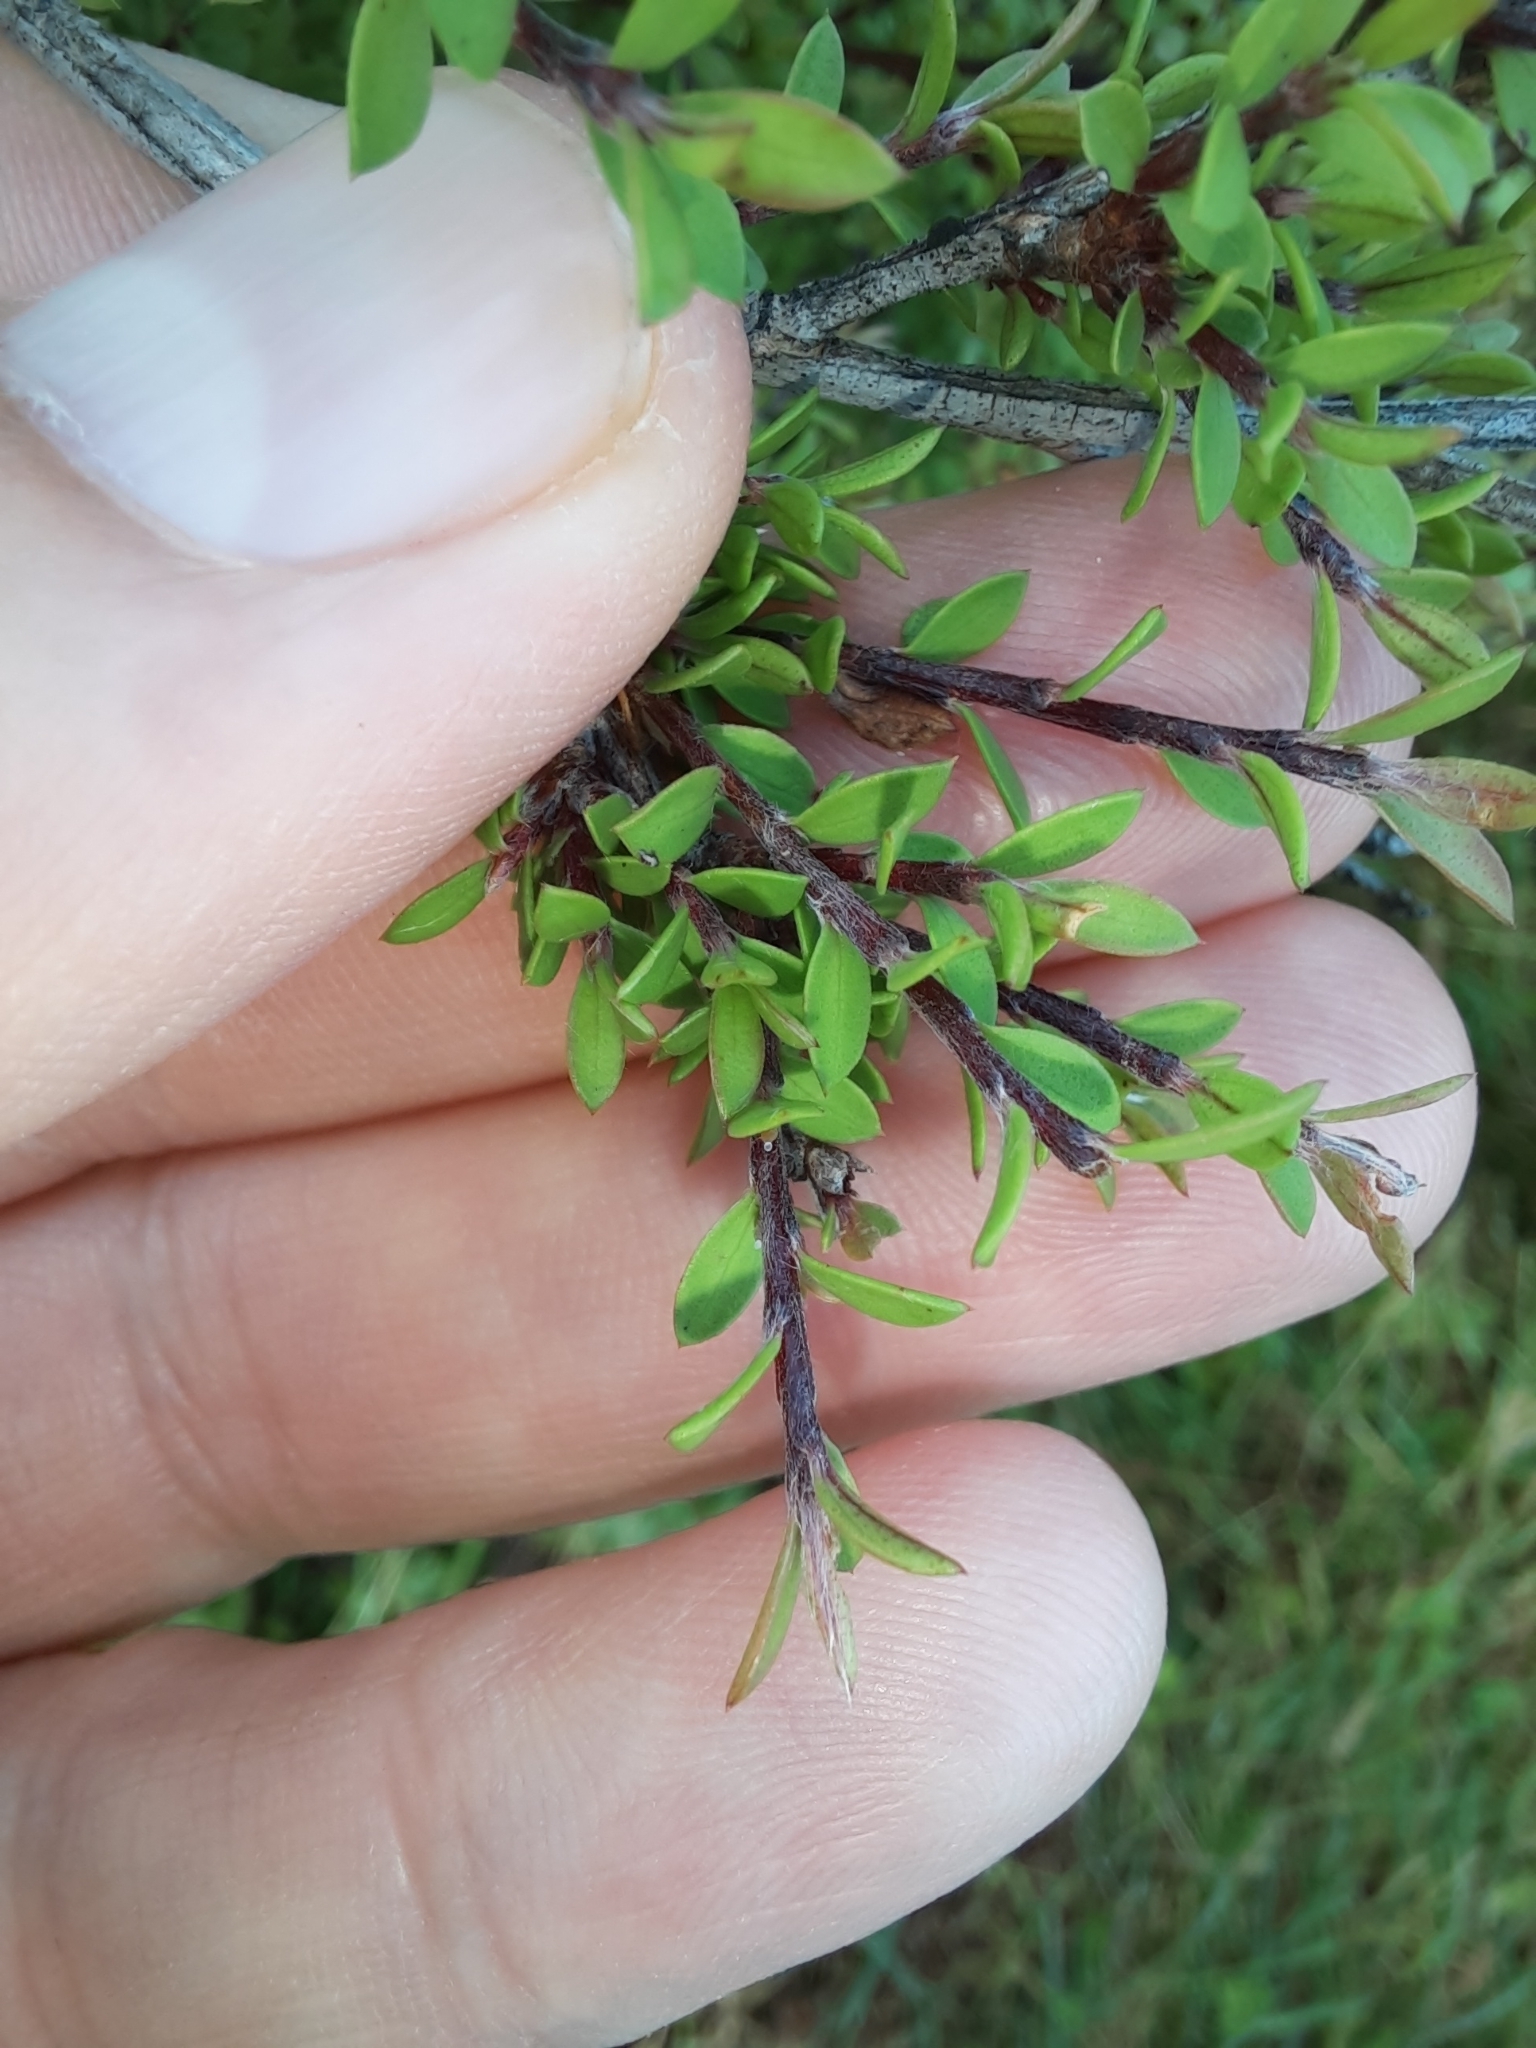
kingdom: Plantae
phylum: Tracheophyta
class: Magnoliopsida
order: Myrtales
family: Myrtaceae
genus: Leptospermum
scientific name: Leptospermum scoparium
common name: Broom tea-tree
